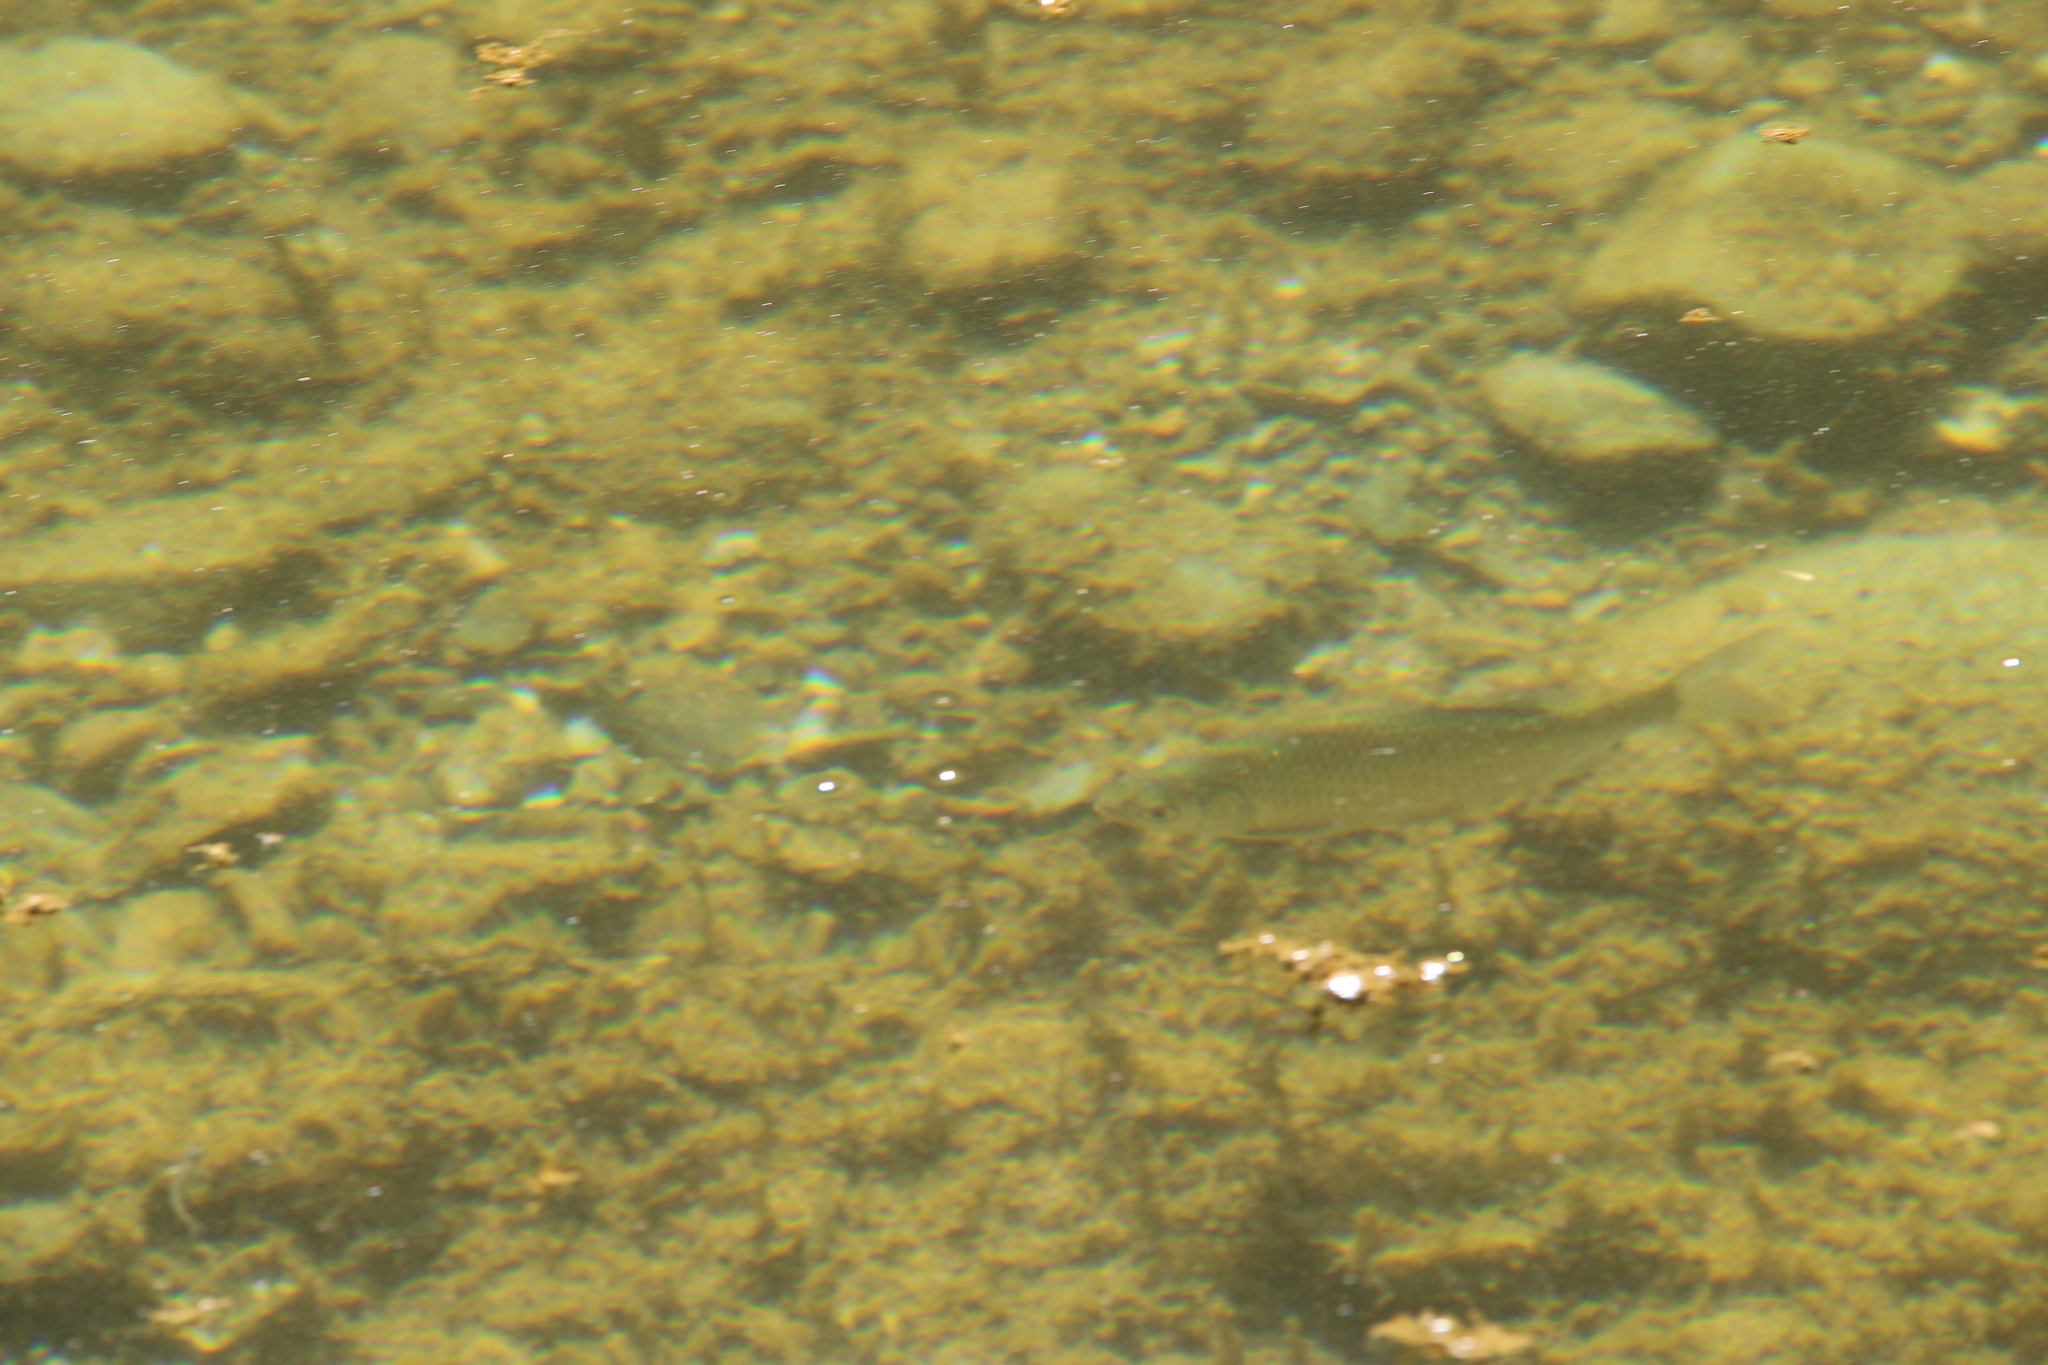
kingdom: Animalia
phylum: Chordata
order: Cypriniformes
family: Cyprinidae
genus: Scardinius
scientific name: Scardinius hesperidicus
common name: Italian rudd
